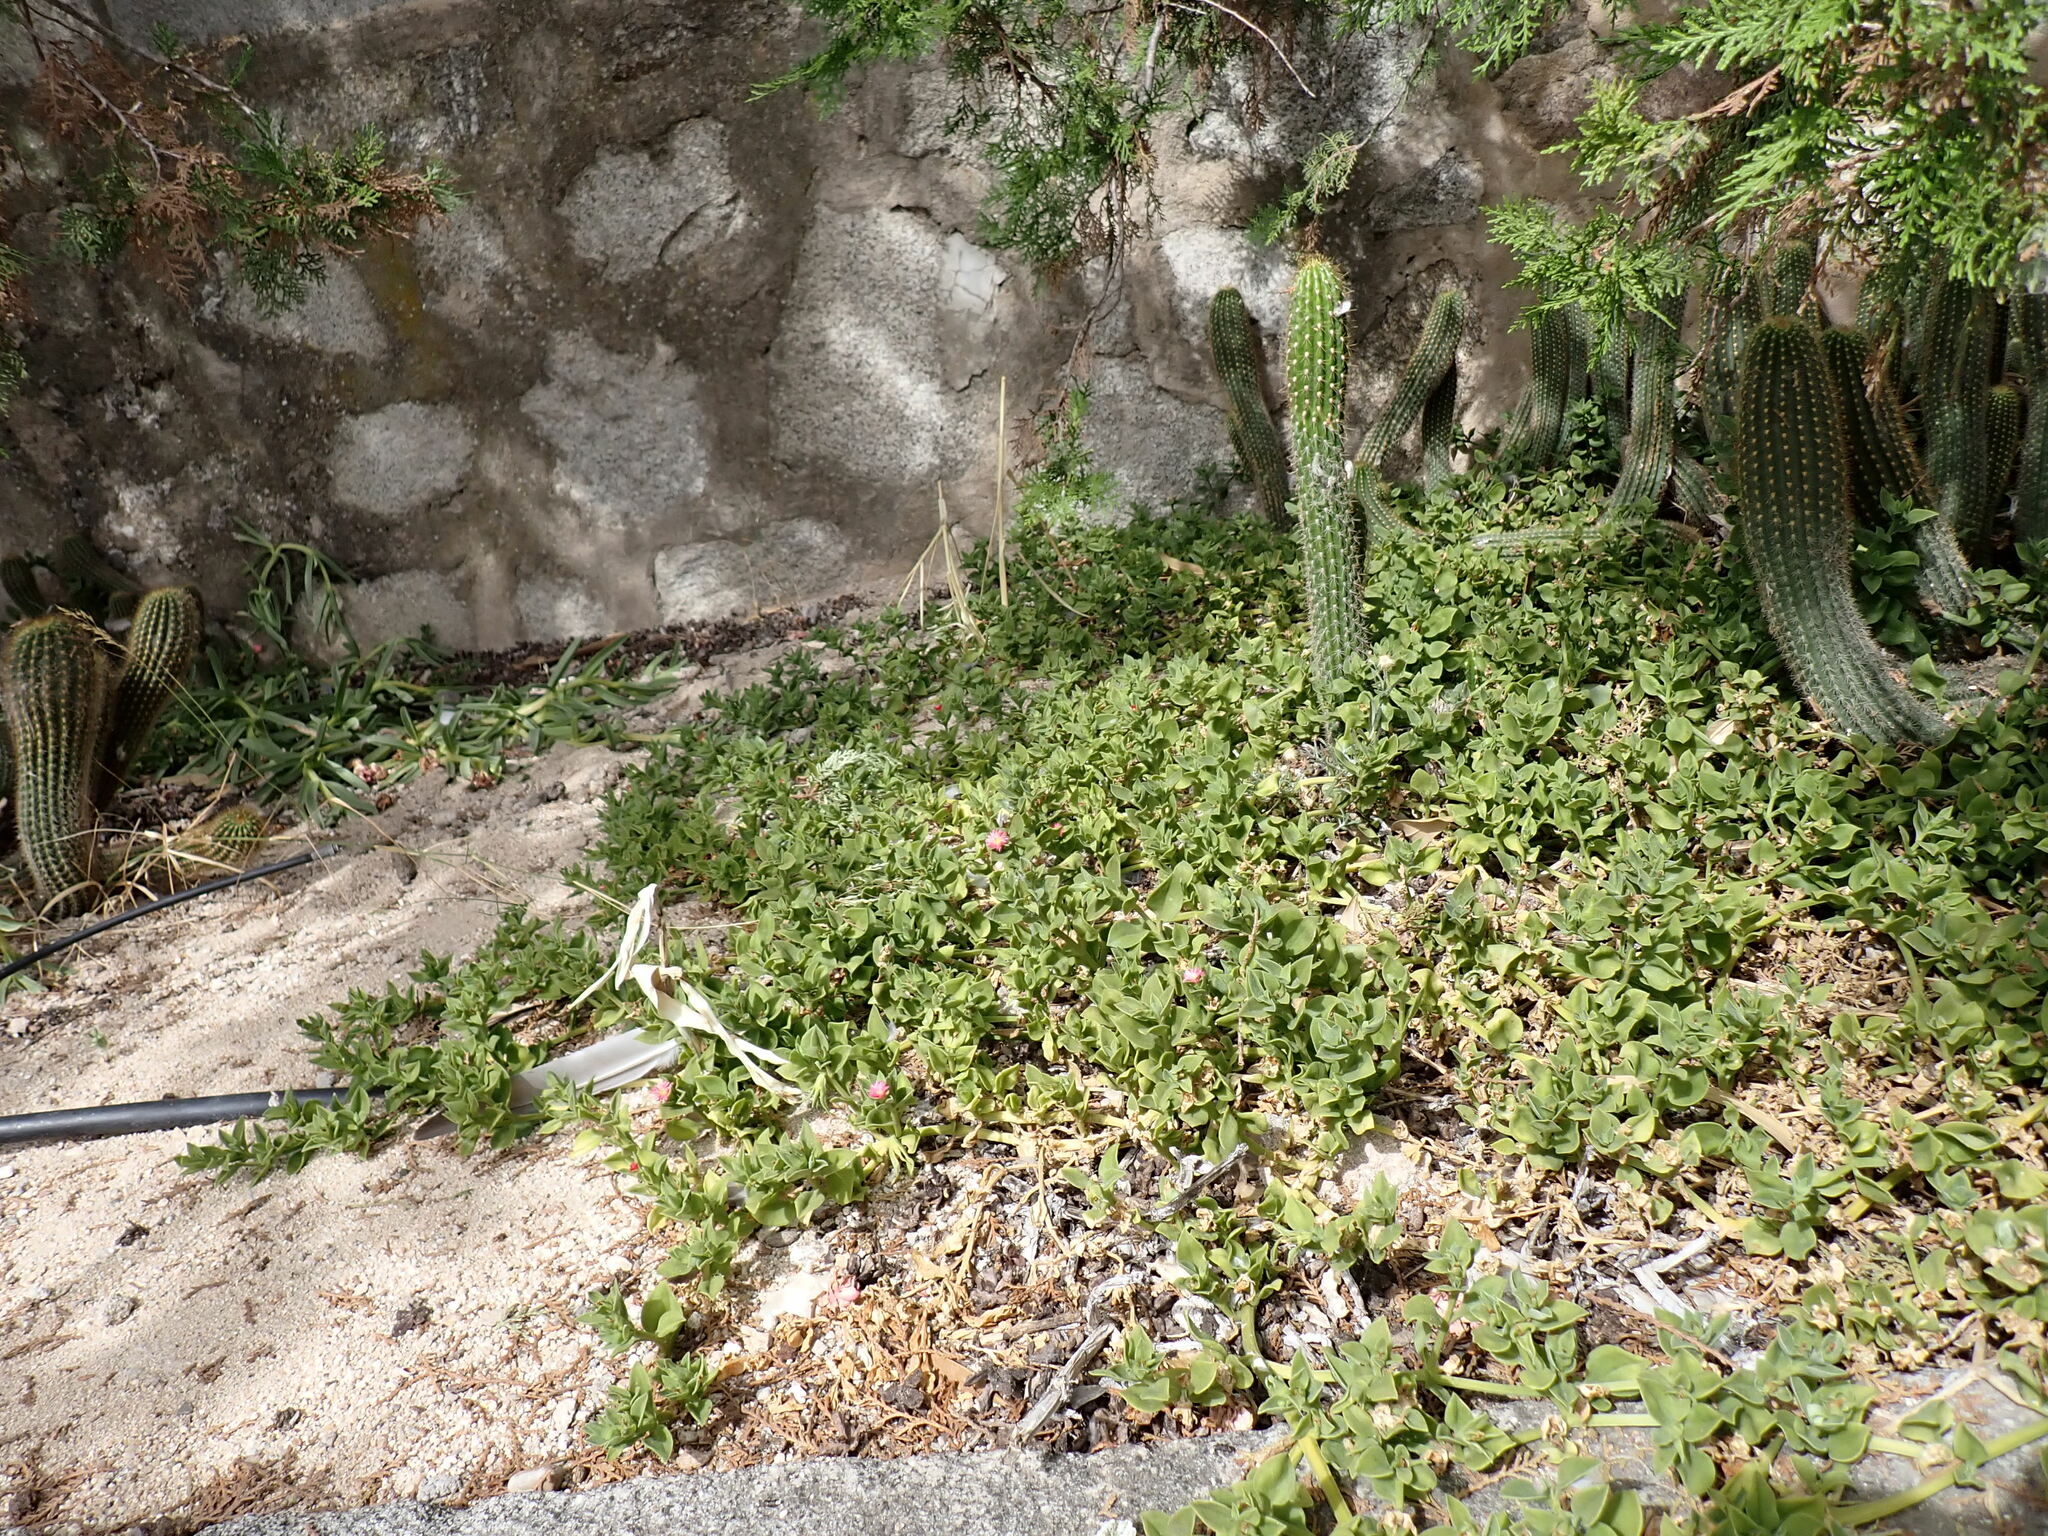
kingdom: Plantae
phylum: Tracheophyta
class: Magnoliopsida
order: Caryophyllales
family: Aizoaceae
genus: Mesembryanthemum
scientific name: Mesembryanthemum cordifolium
